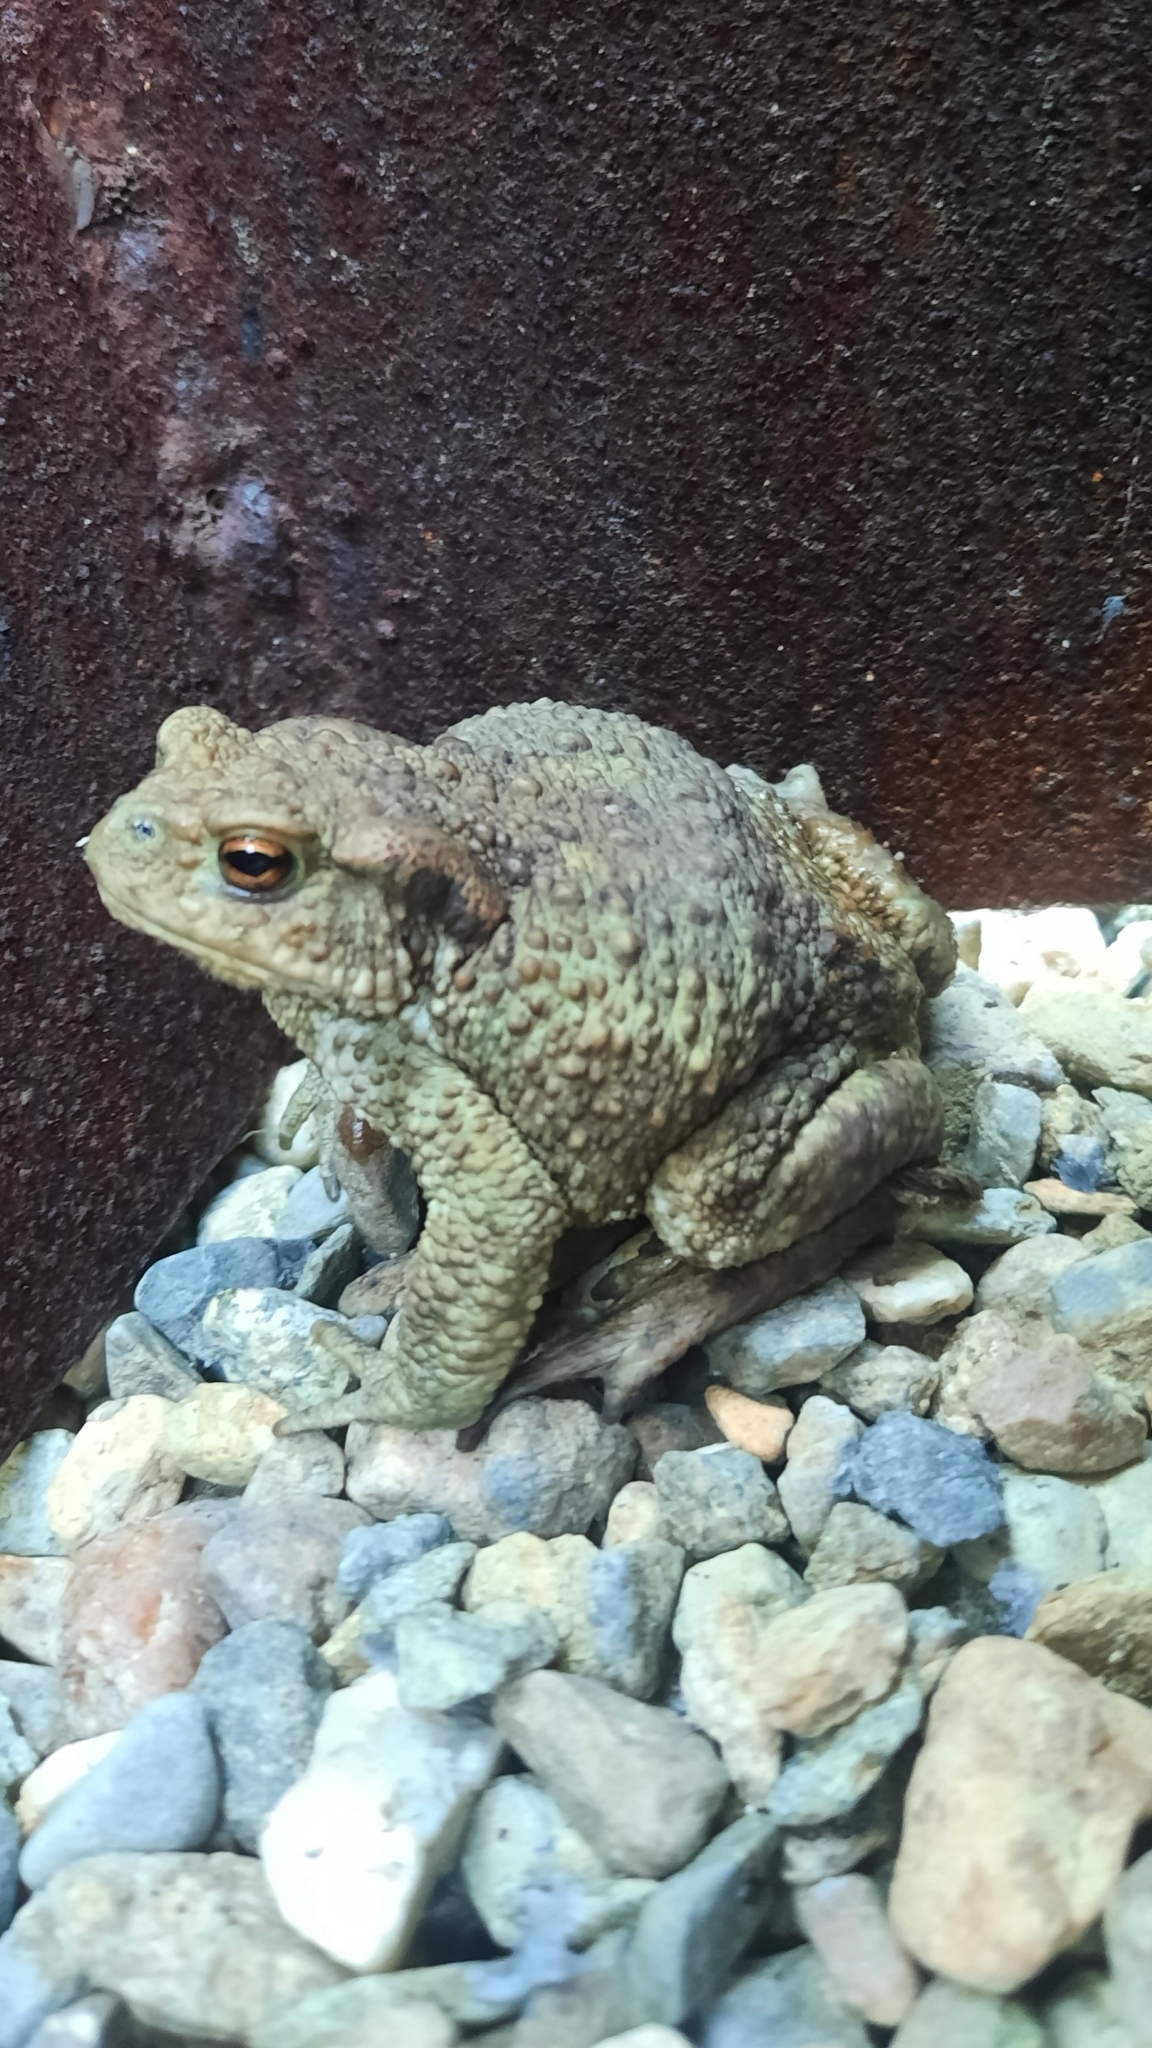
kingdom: Animalia
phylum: Chordata
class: Amphibia
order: Anura
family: Bufonidae
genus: Bufo
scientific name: Bufo bufo
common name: Common toad
